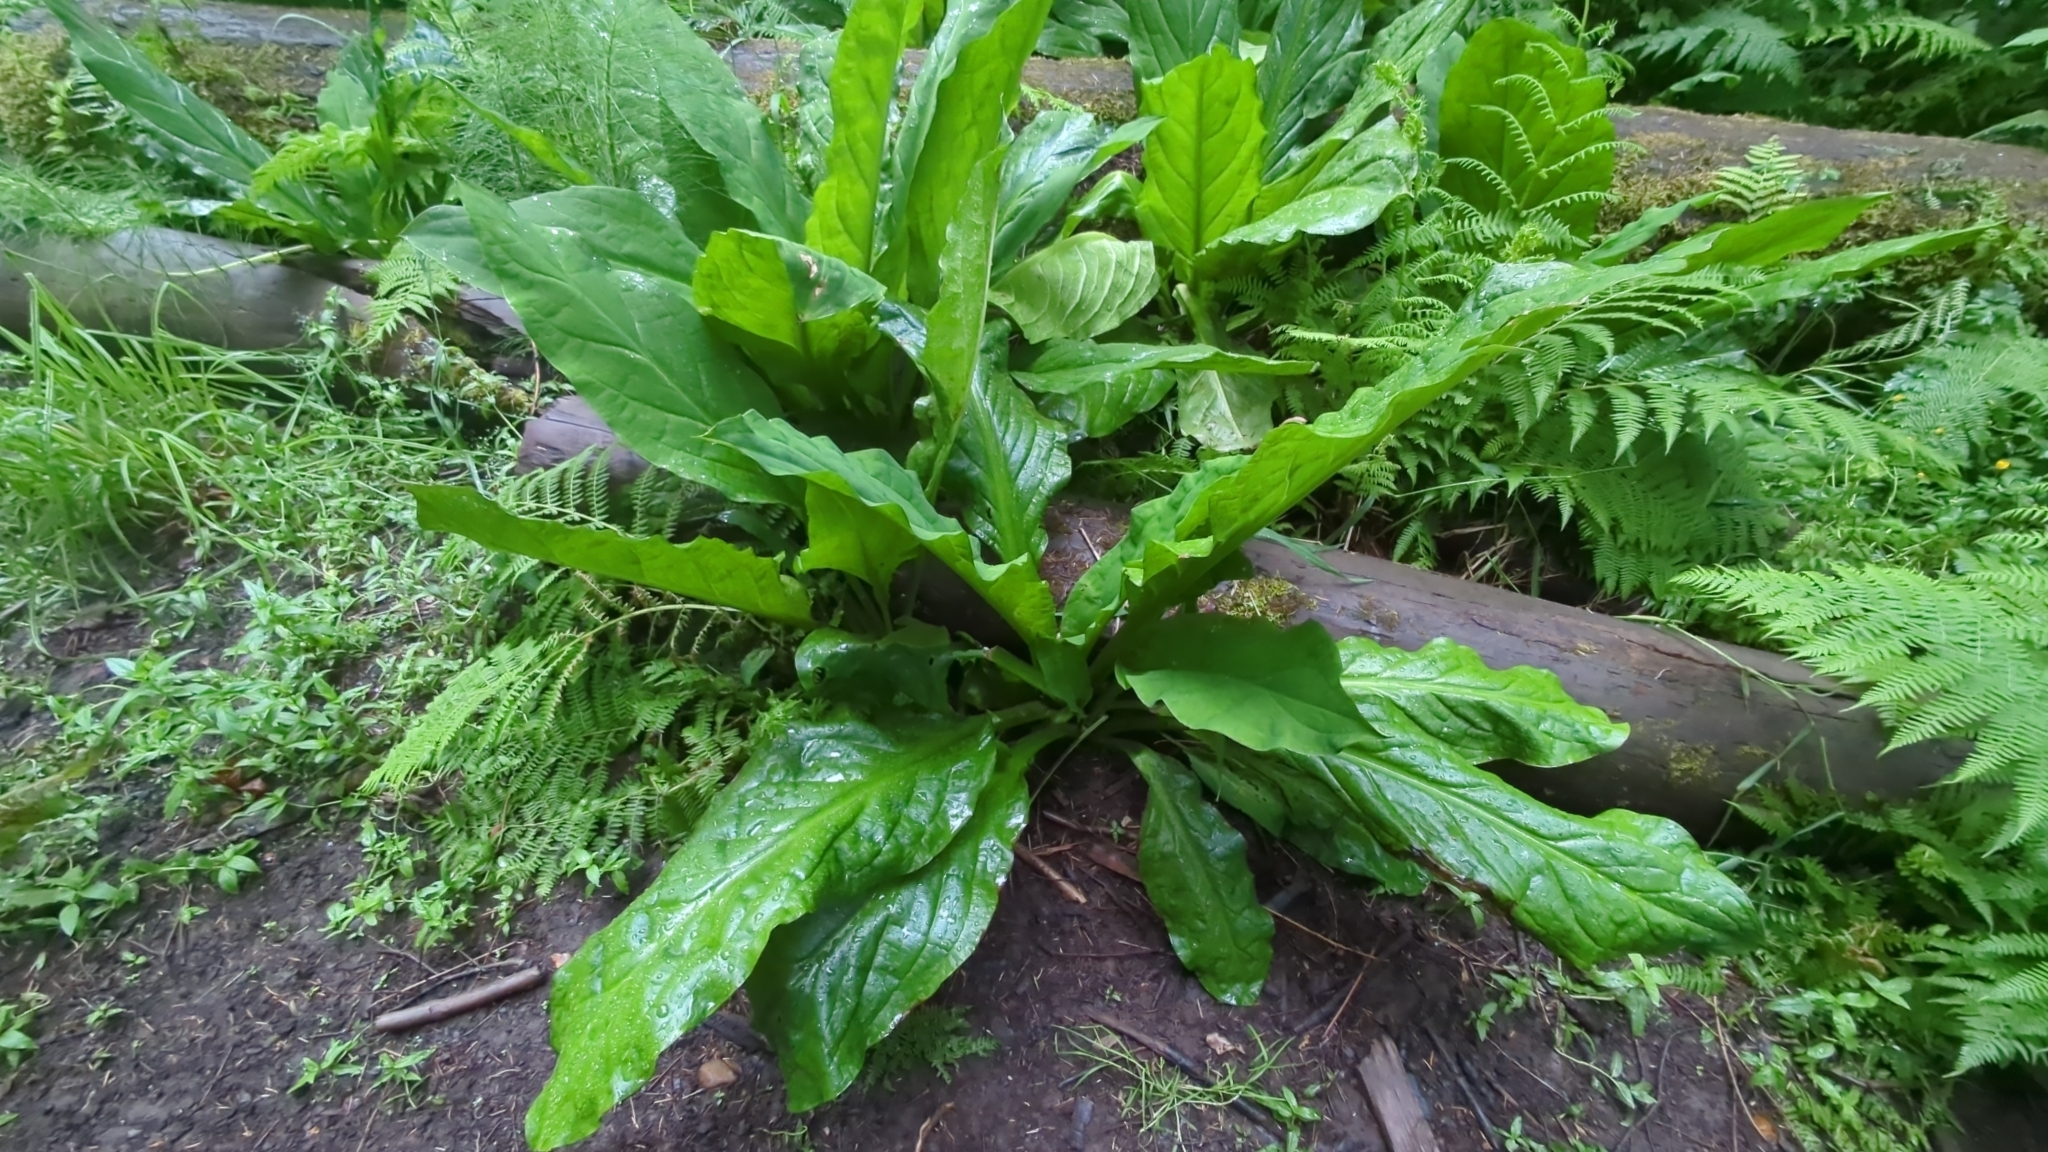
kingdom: Plantae
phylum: Tracheophyta
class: Liliopsida
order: Alismatales
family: Araceae
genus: Lysichiton
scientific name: Lysichiton americanus
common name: American skunk cabbage
